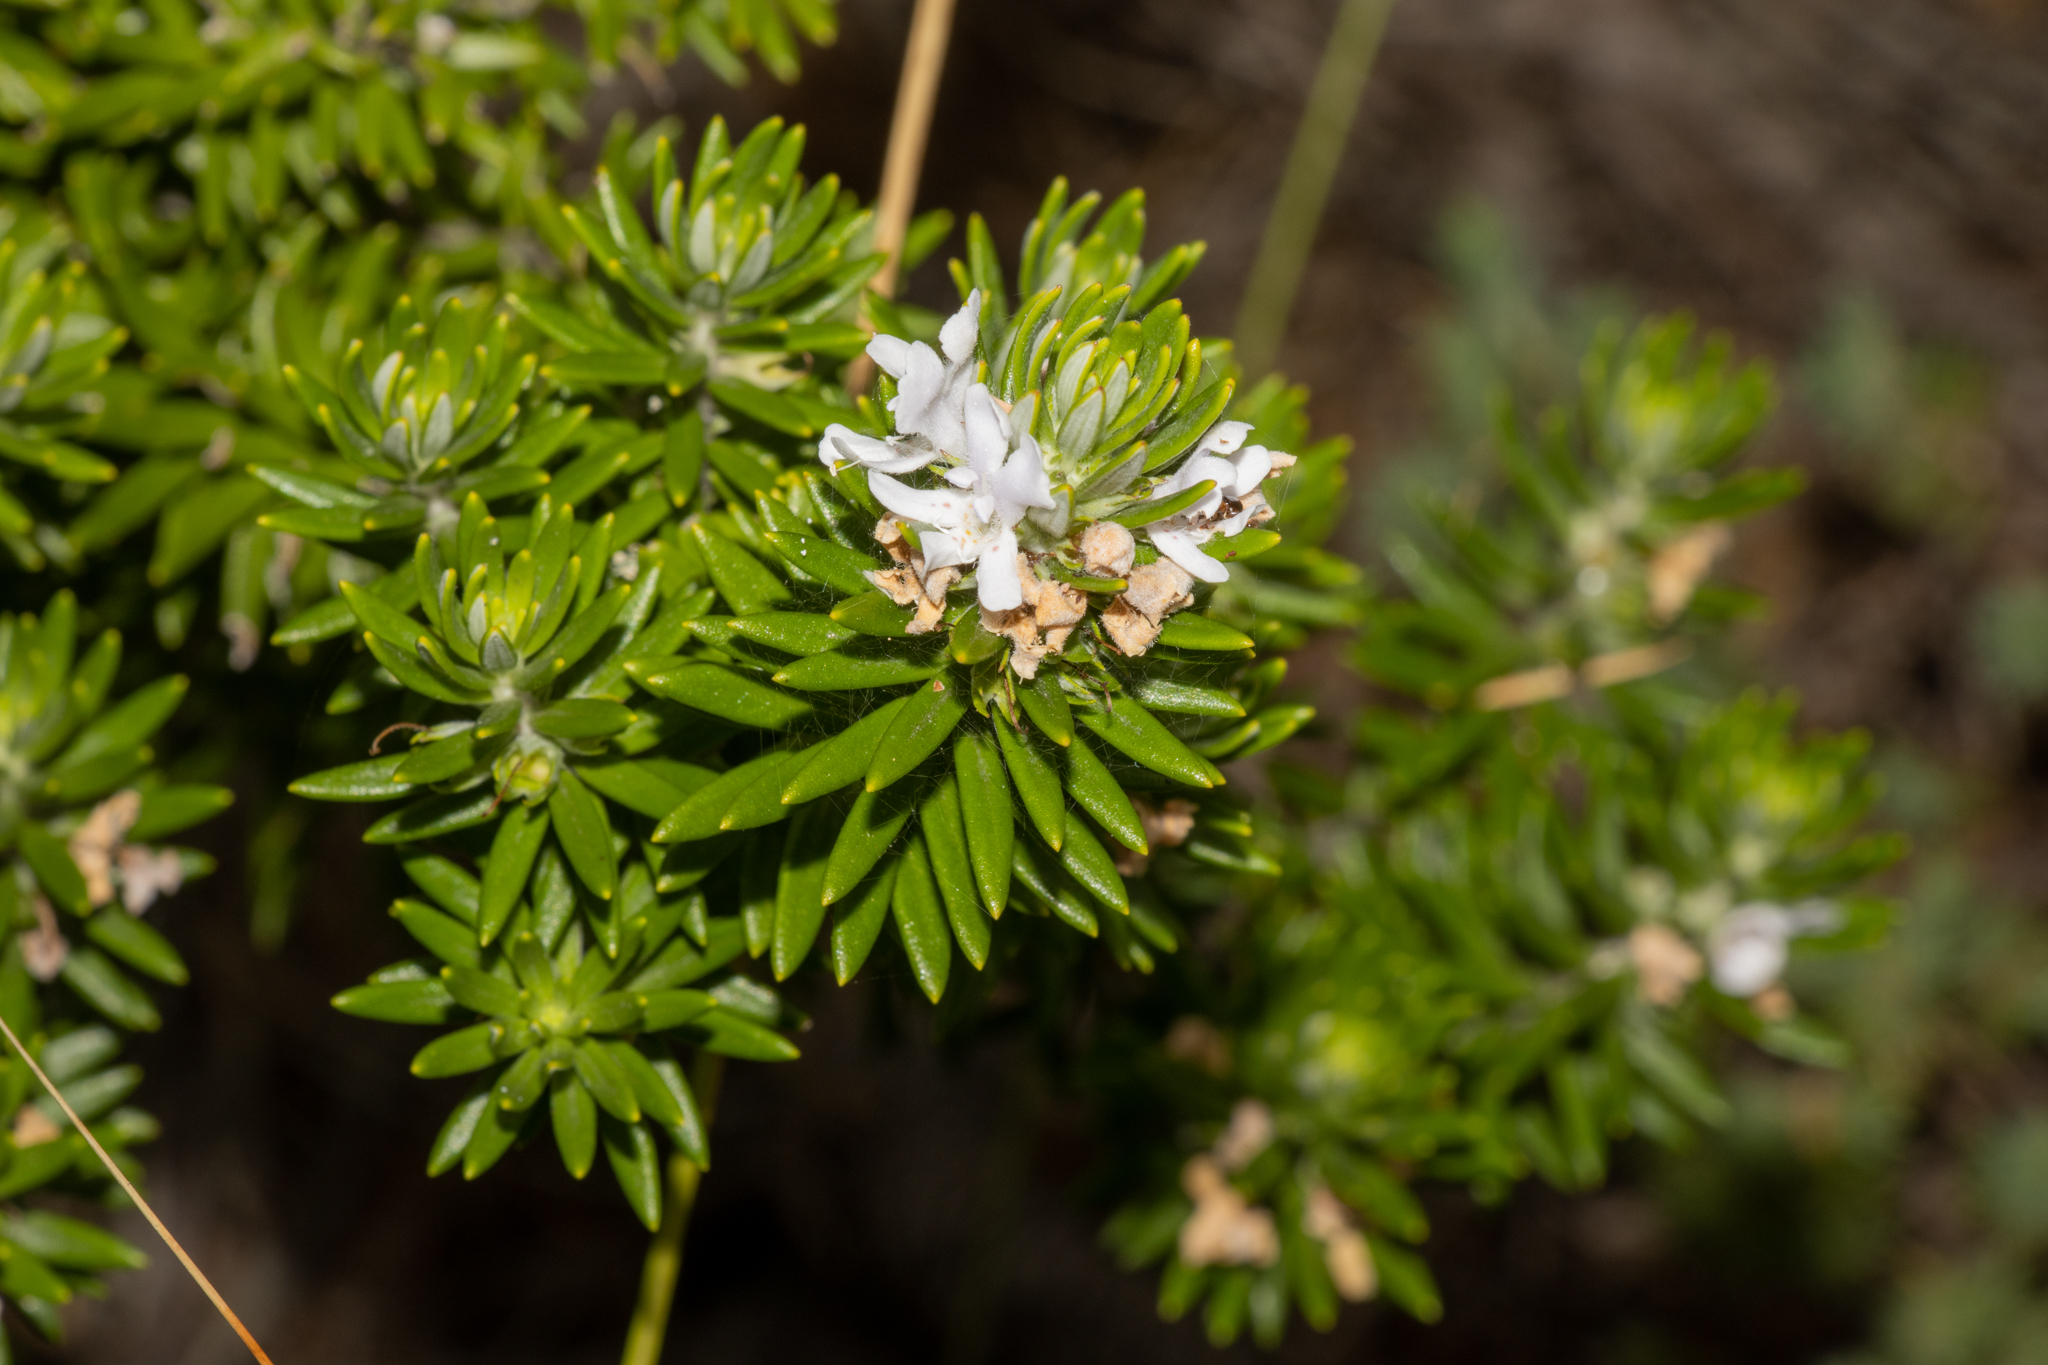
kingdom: Plantae
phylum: Tracheophyta
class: Magnoliopsida
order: Lamiales
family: Lamiaceae
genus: Westringia
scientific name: Westringia fruticosa
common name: Coastal-rosemary
